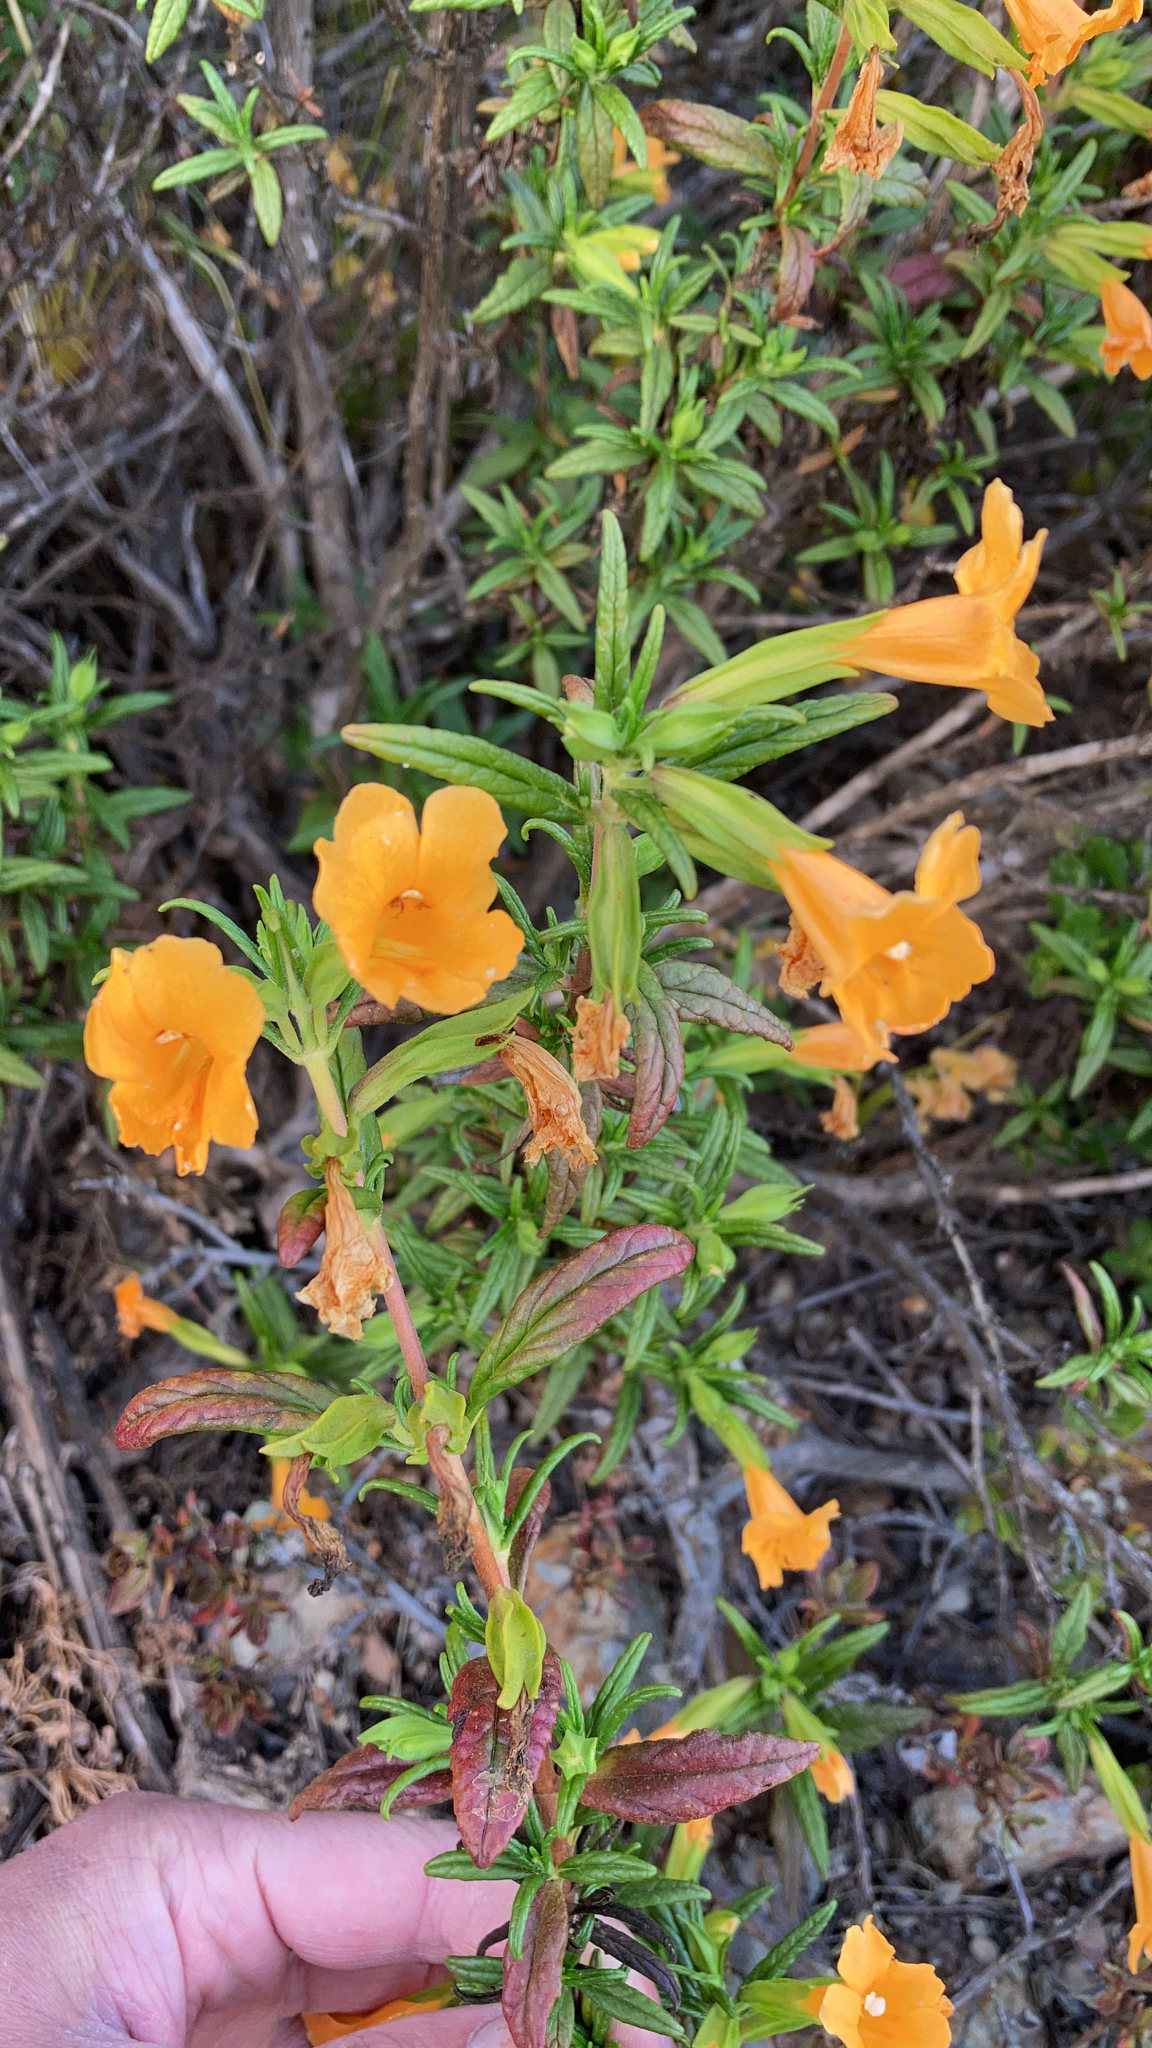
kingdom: Plantae
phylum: Tracheophyta
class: Magnoliopsida
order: Lamiales
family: Phrymaceae
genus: Diplacus
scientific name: Diplacus aurantiacus
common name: Bush monkey-flower
